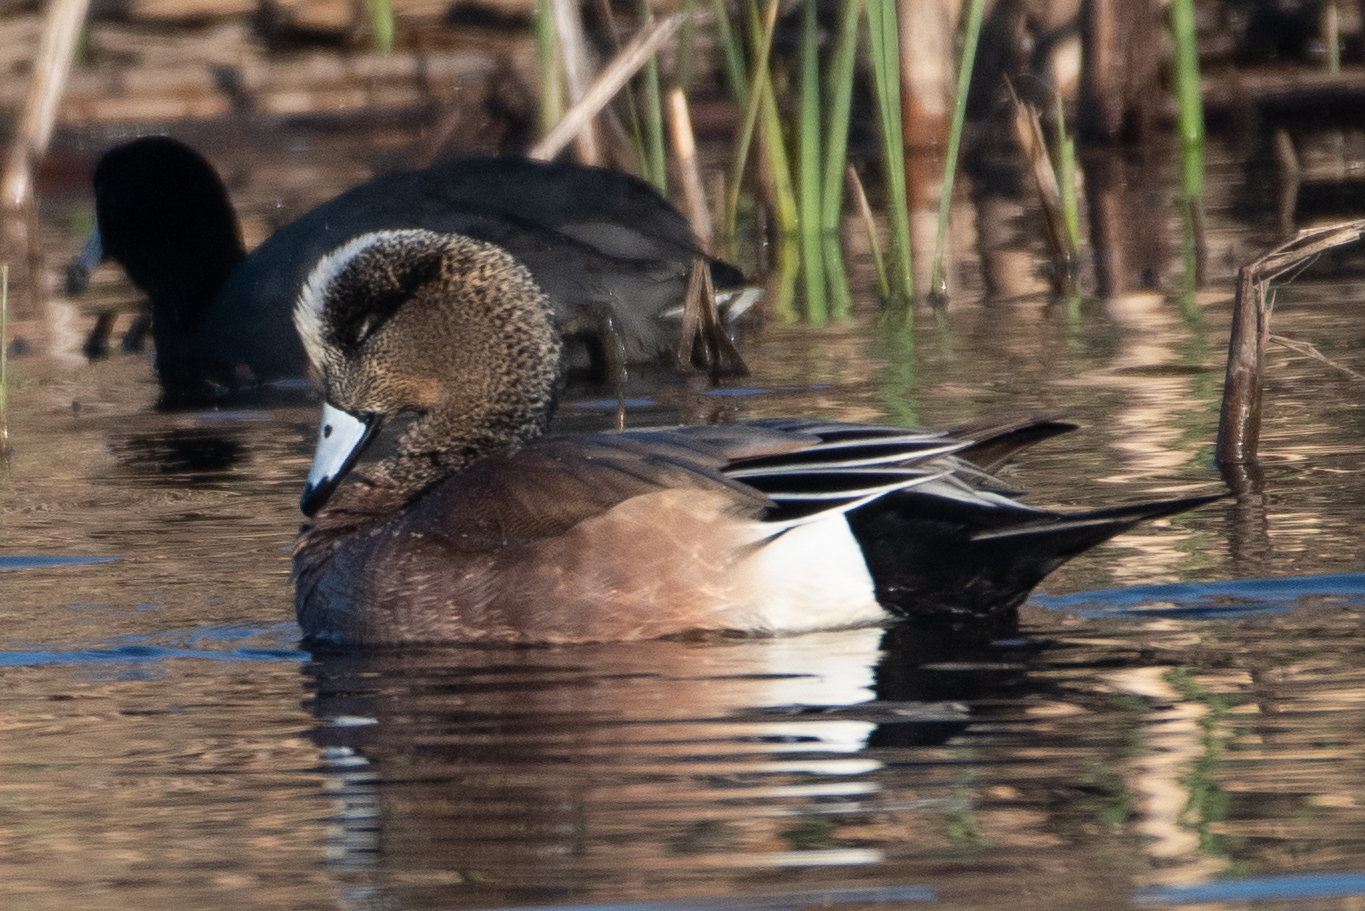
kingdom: Animalia
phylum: Chordata
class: Aves
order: Anseriformes
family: Anatidae
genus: Mareca
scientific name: Mareca americana
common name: American wigeon
